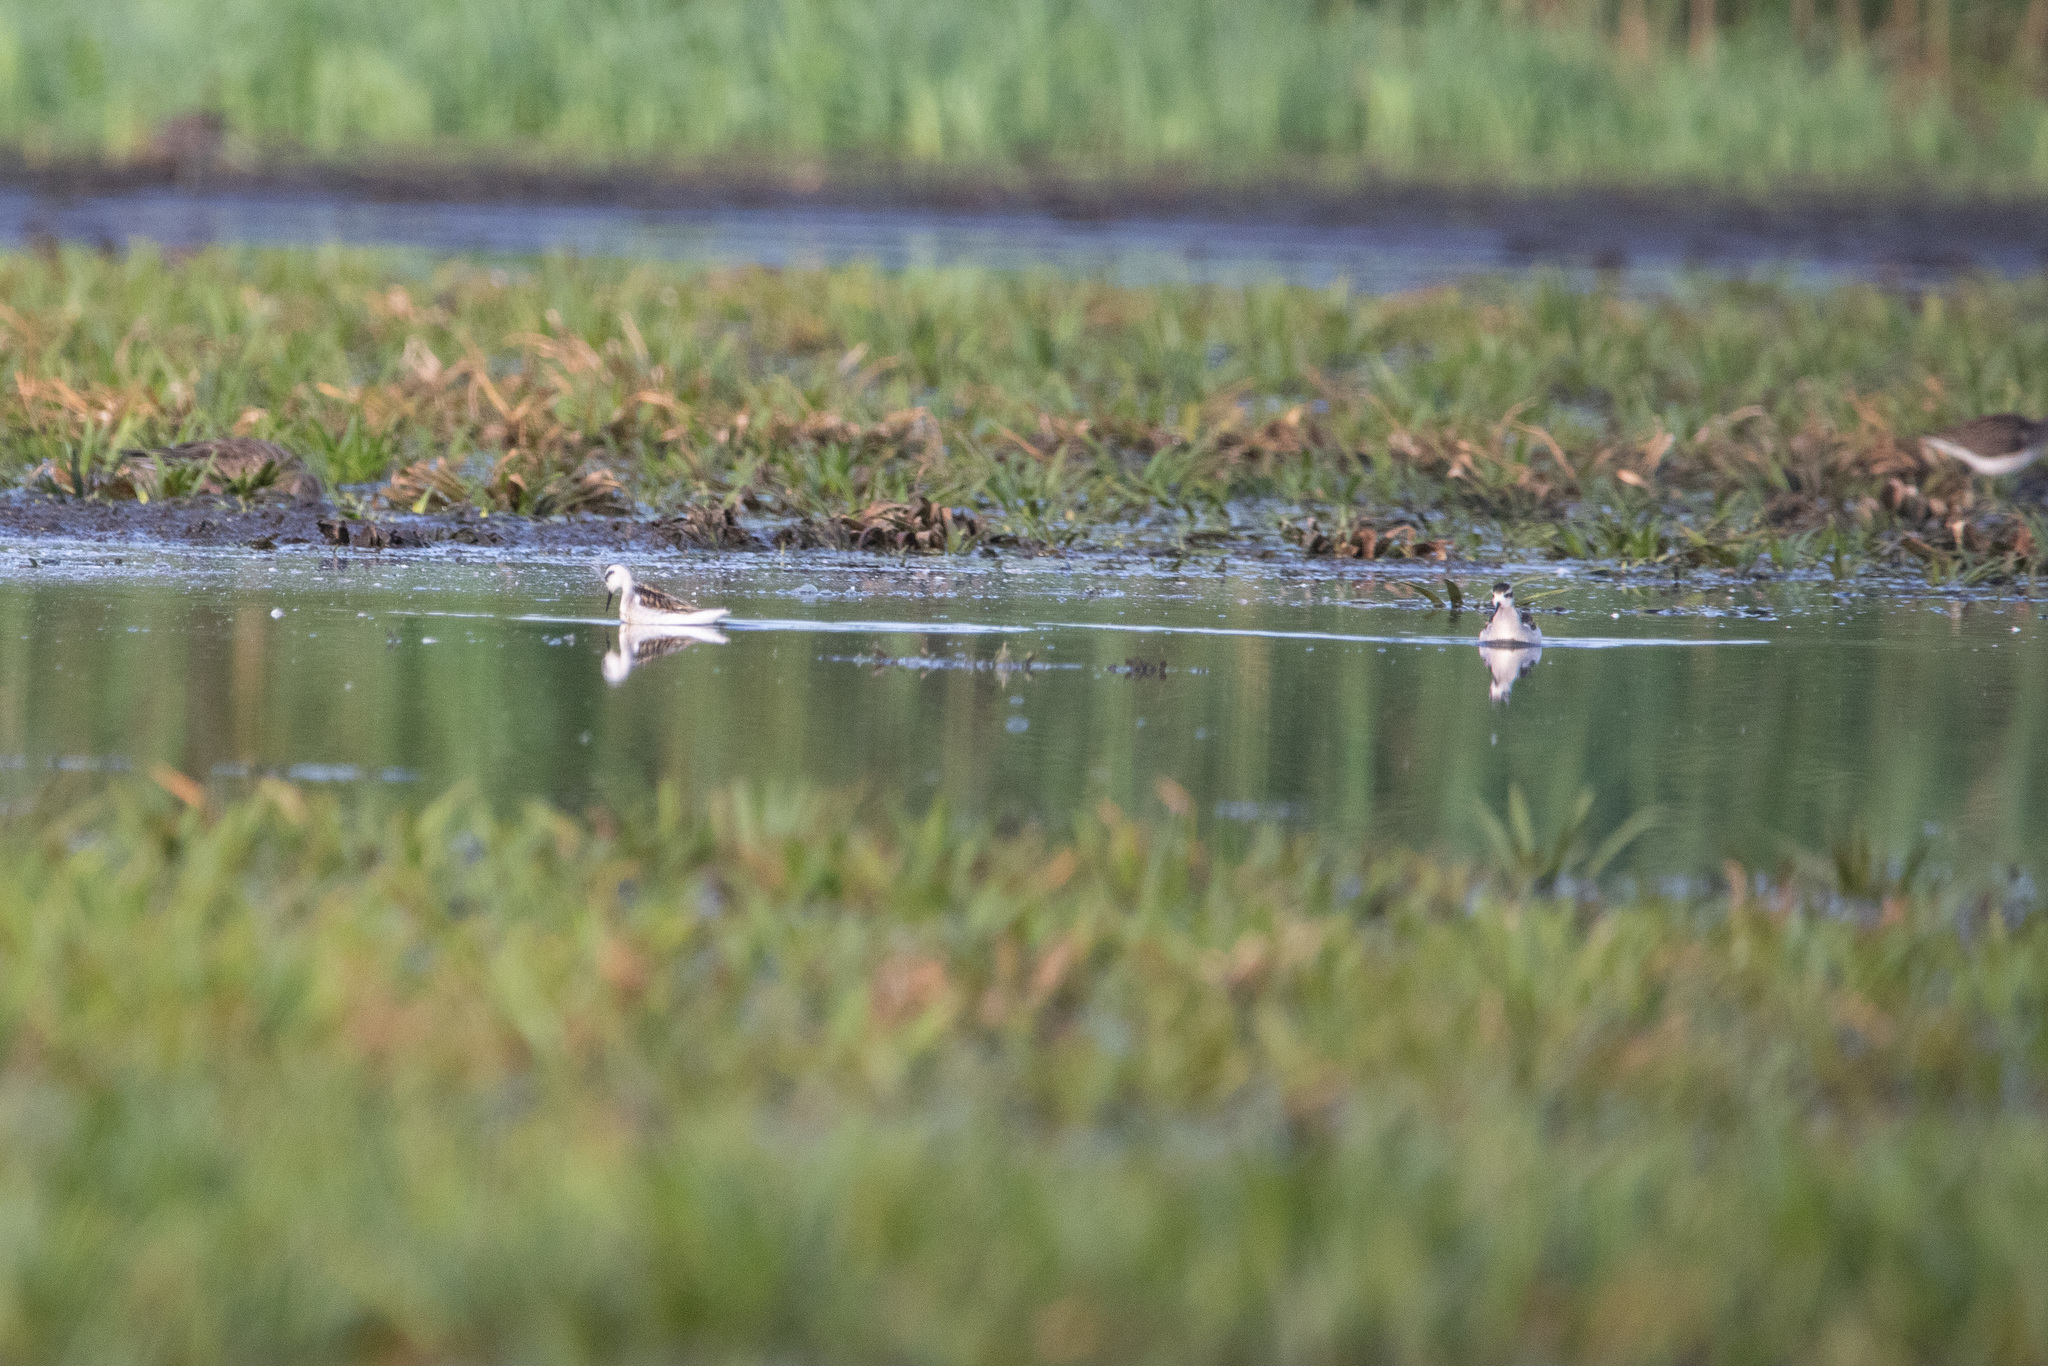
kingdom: Animalia
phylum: Chordata
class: Aves
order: Charadriiformes
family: Scolopacidae
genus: Phalaropus
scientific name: Phalaropus lobatus
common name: Red-necked phalarope
